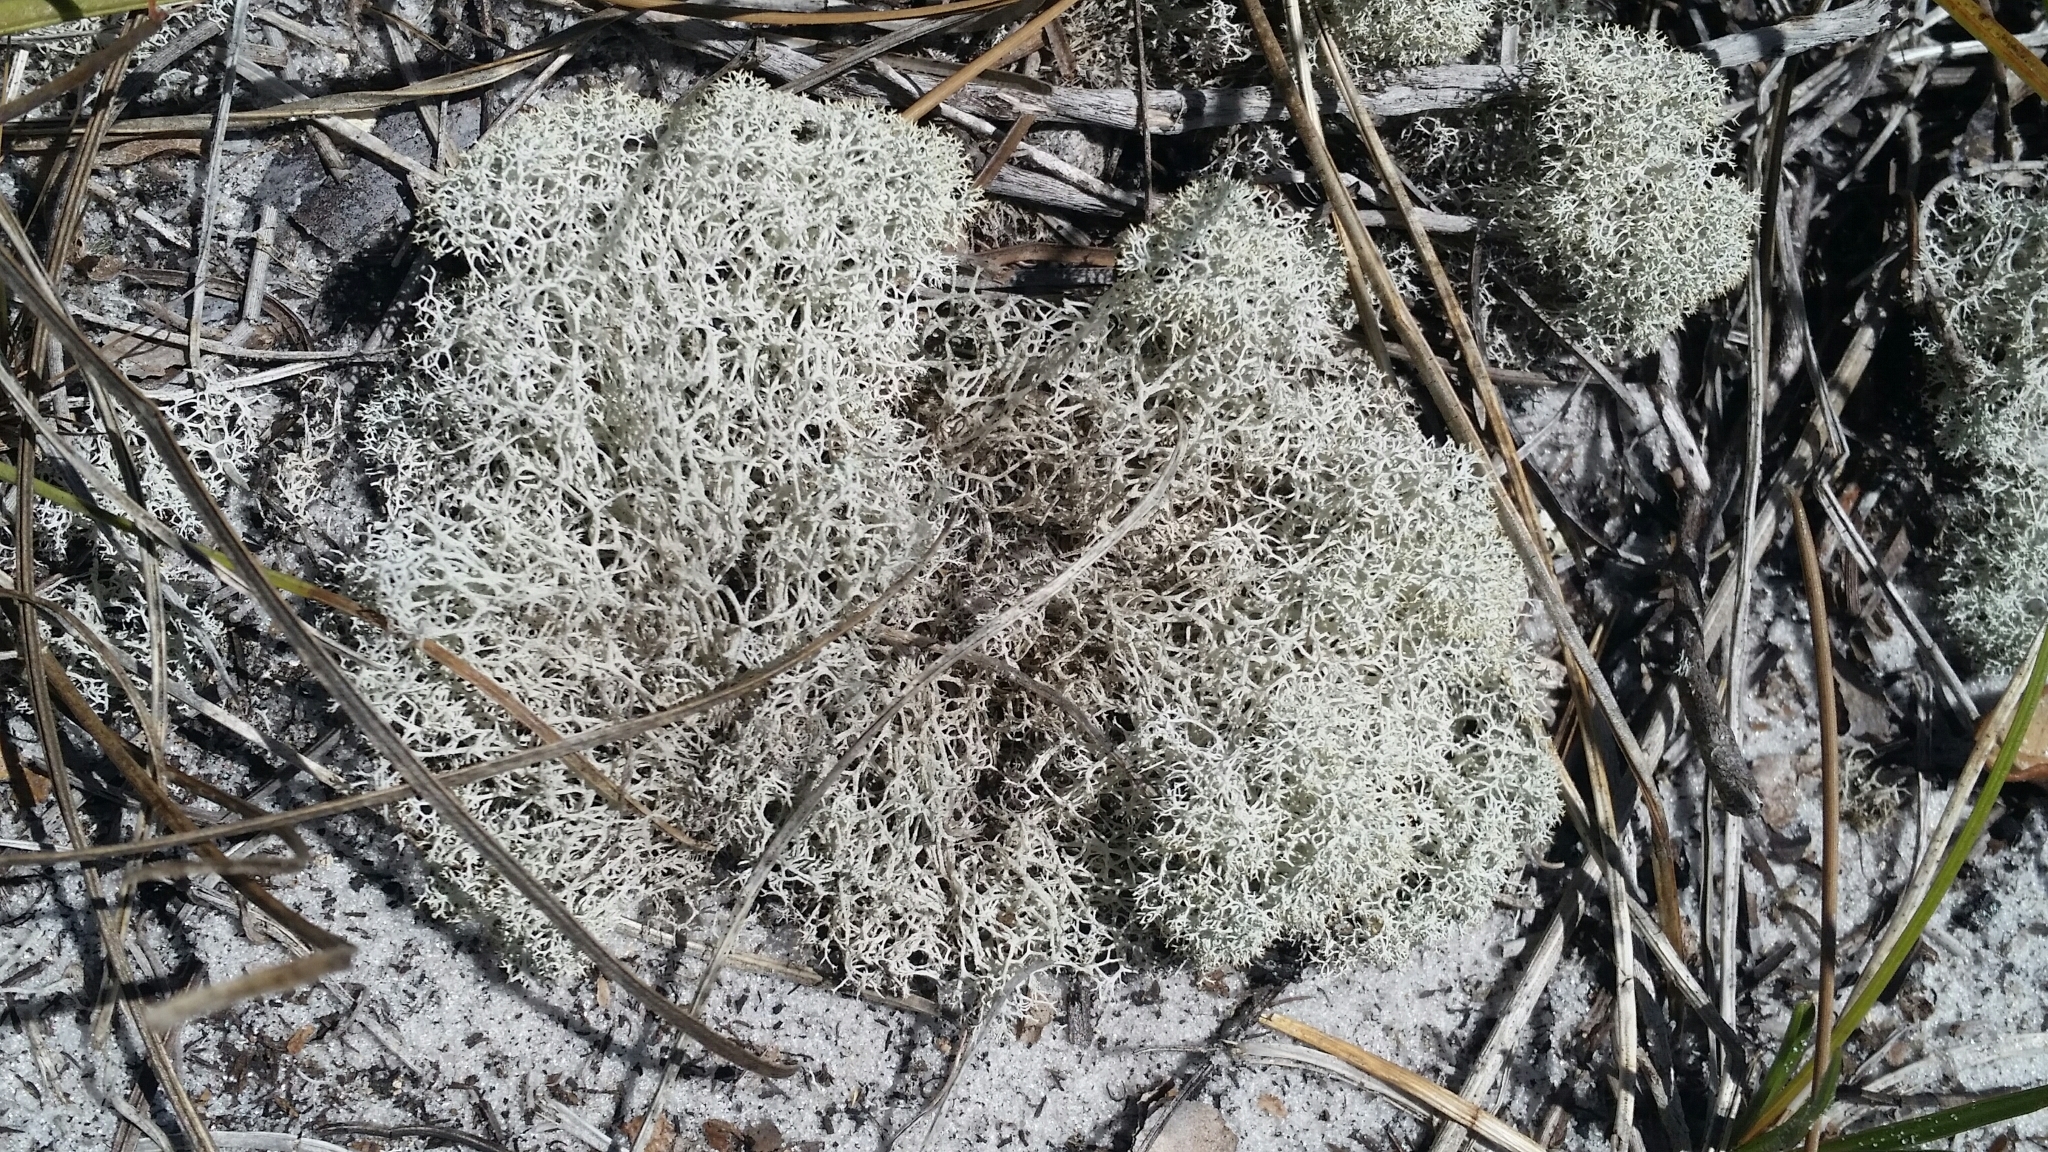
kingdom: Fungi
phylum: Ascomycota
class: Lecanoromycetes
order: Lecanorales
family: Cladoniaceae
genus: Cladonia
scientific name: Cladonia evansii
